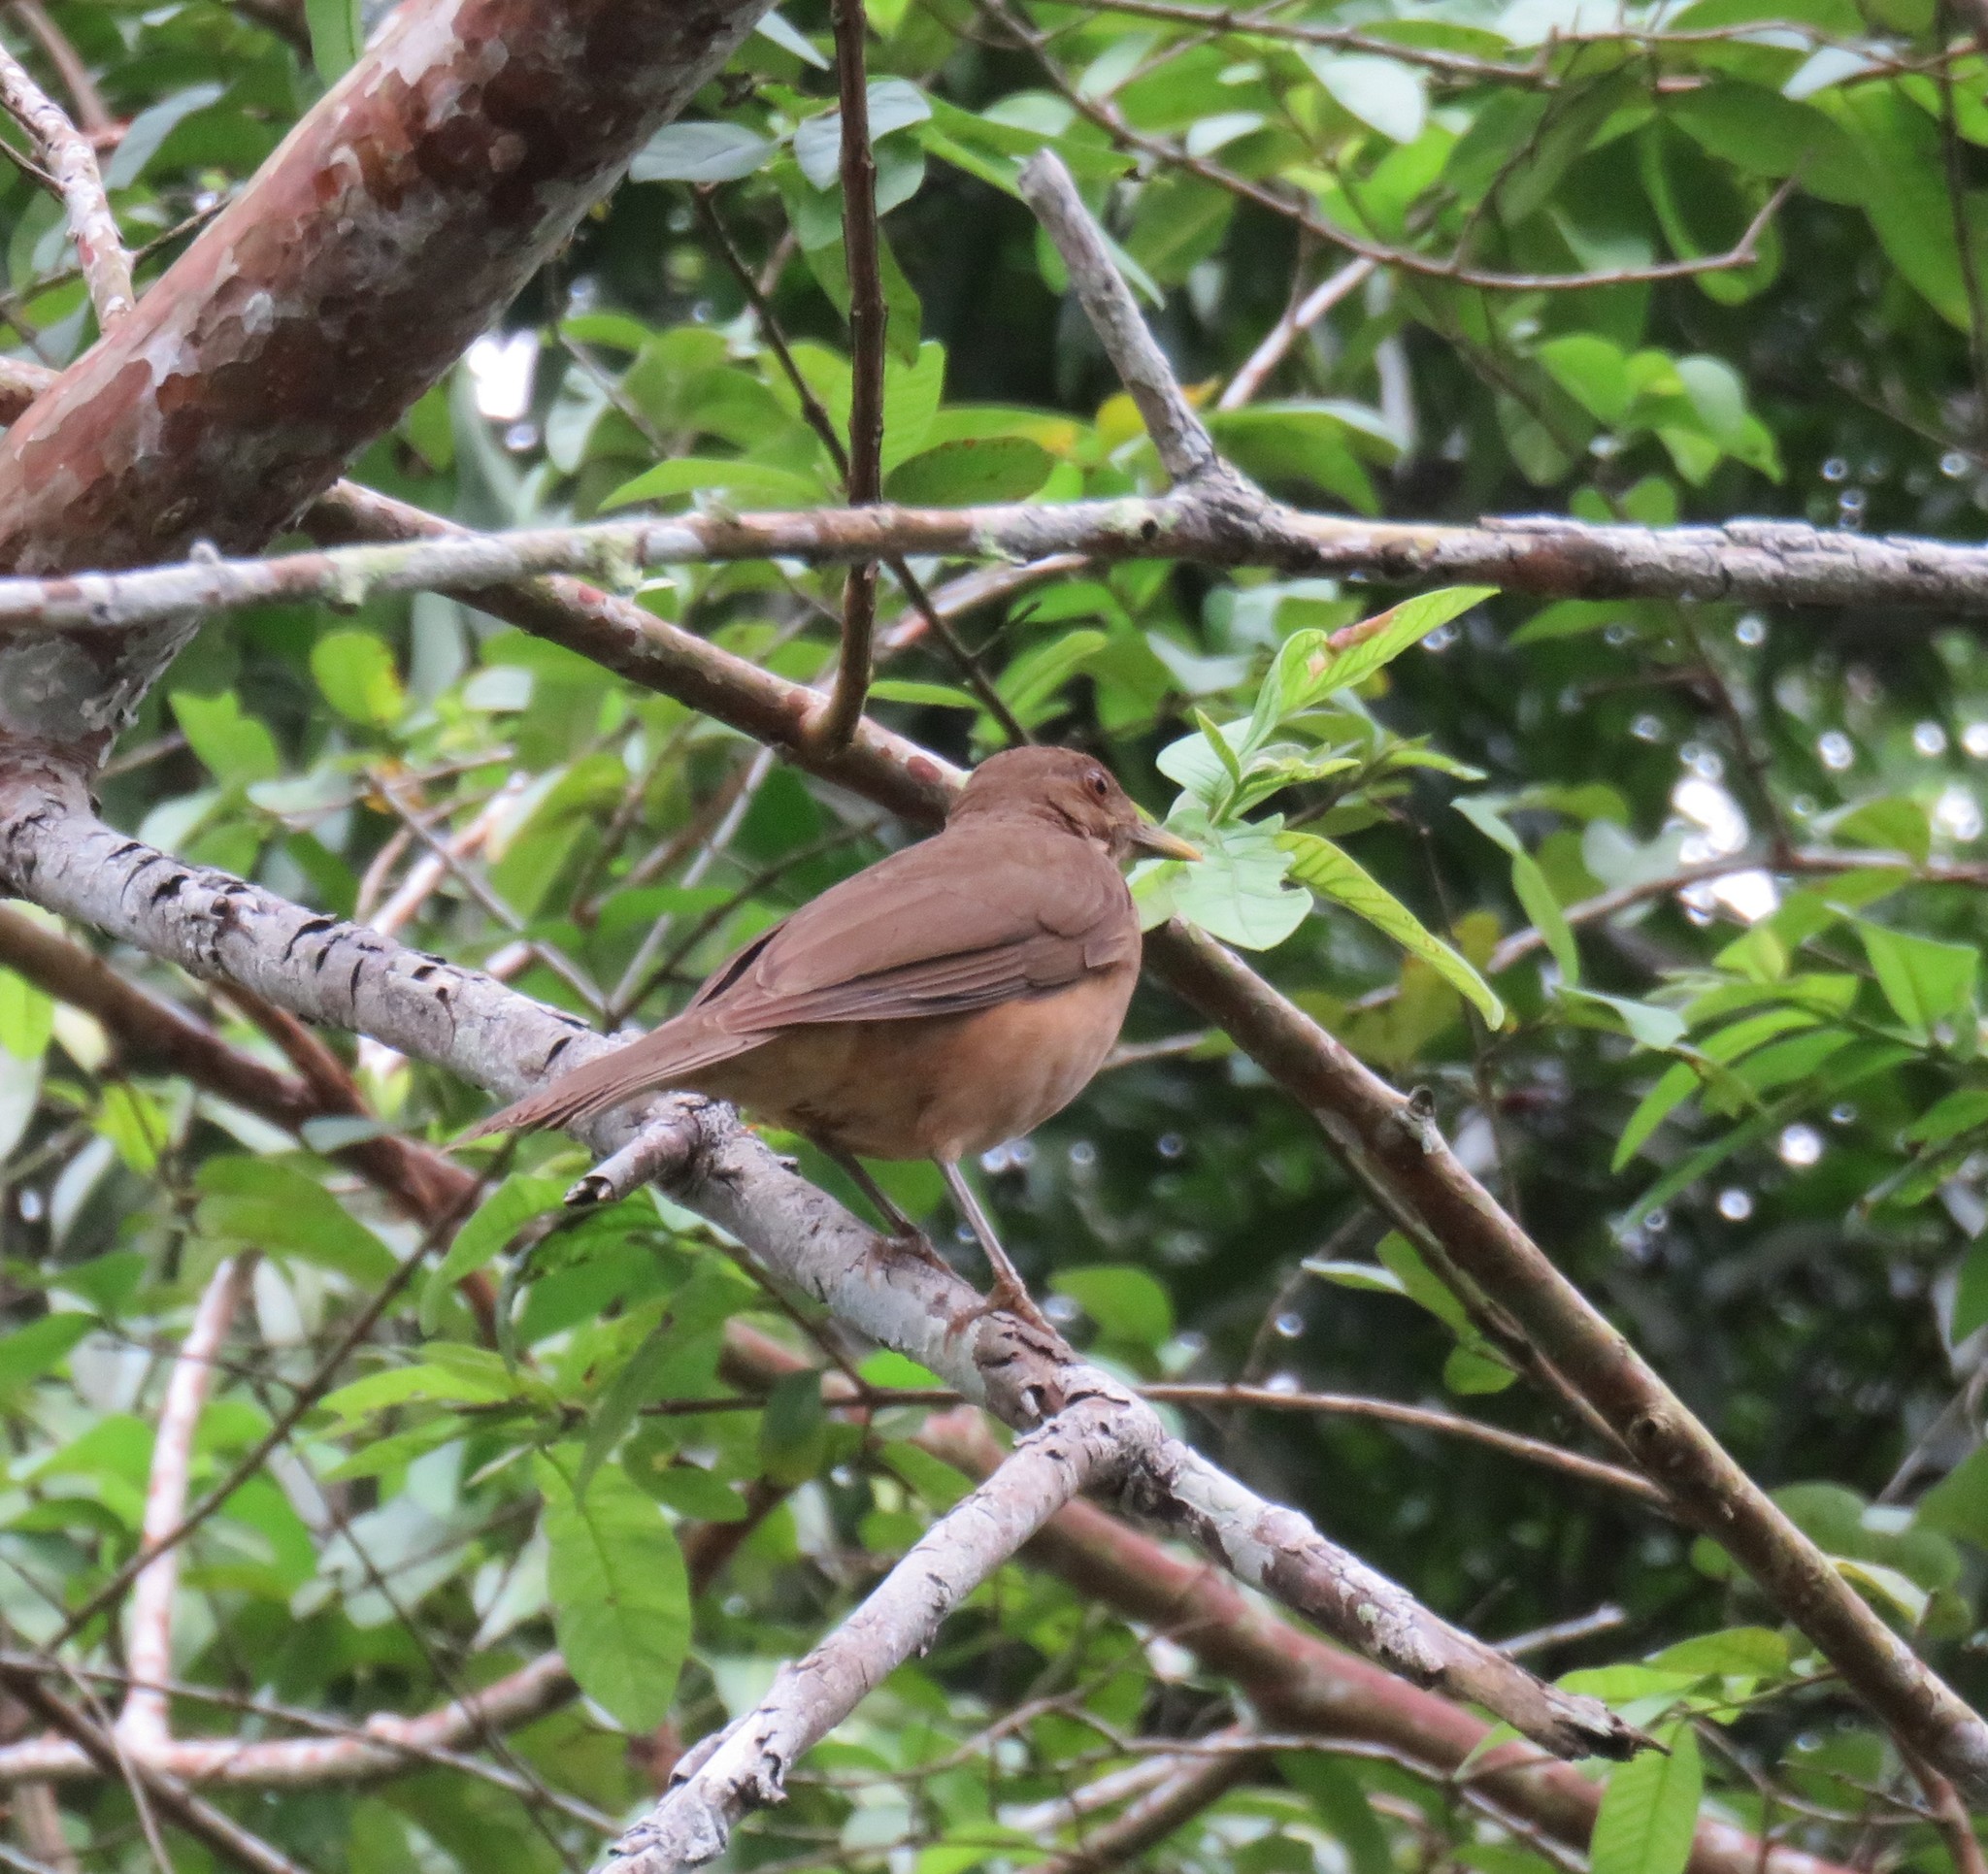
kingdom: Animalia
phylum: Chordata
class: Aves
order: Passeriformes
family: Turdidae
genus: Turdus
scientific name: Turdus grayi
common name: Clay-colored thrush
